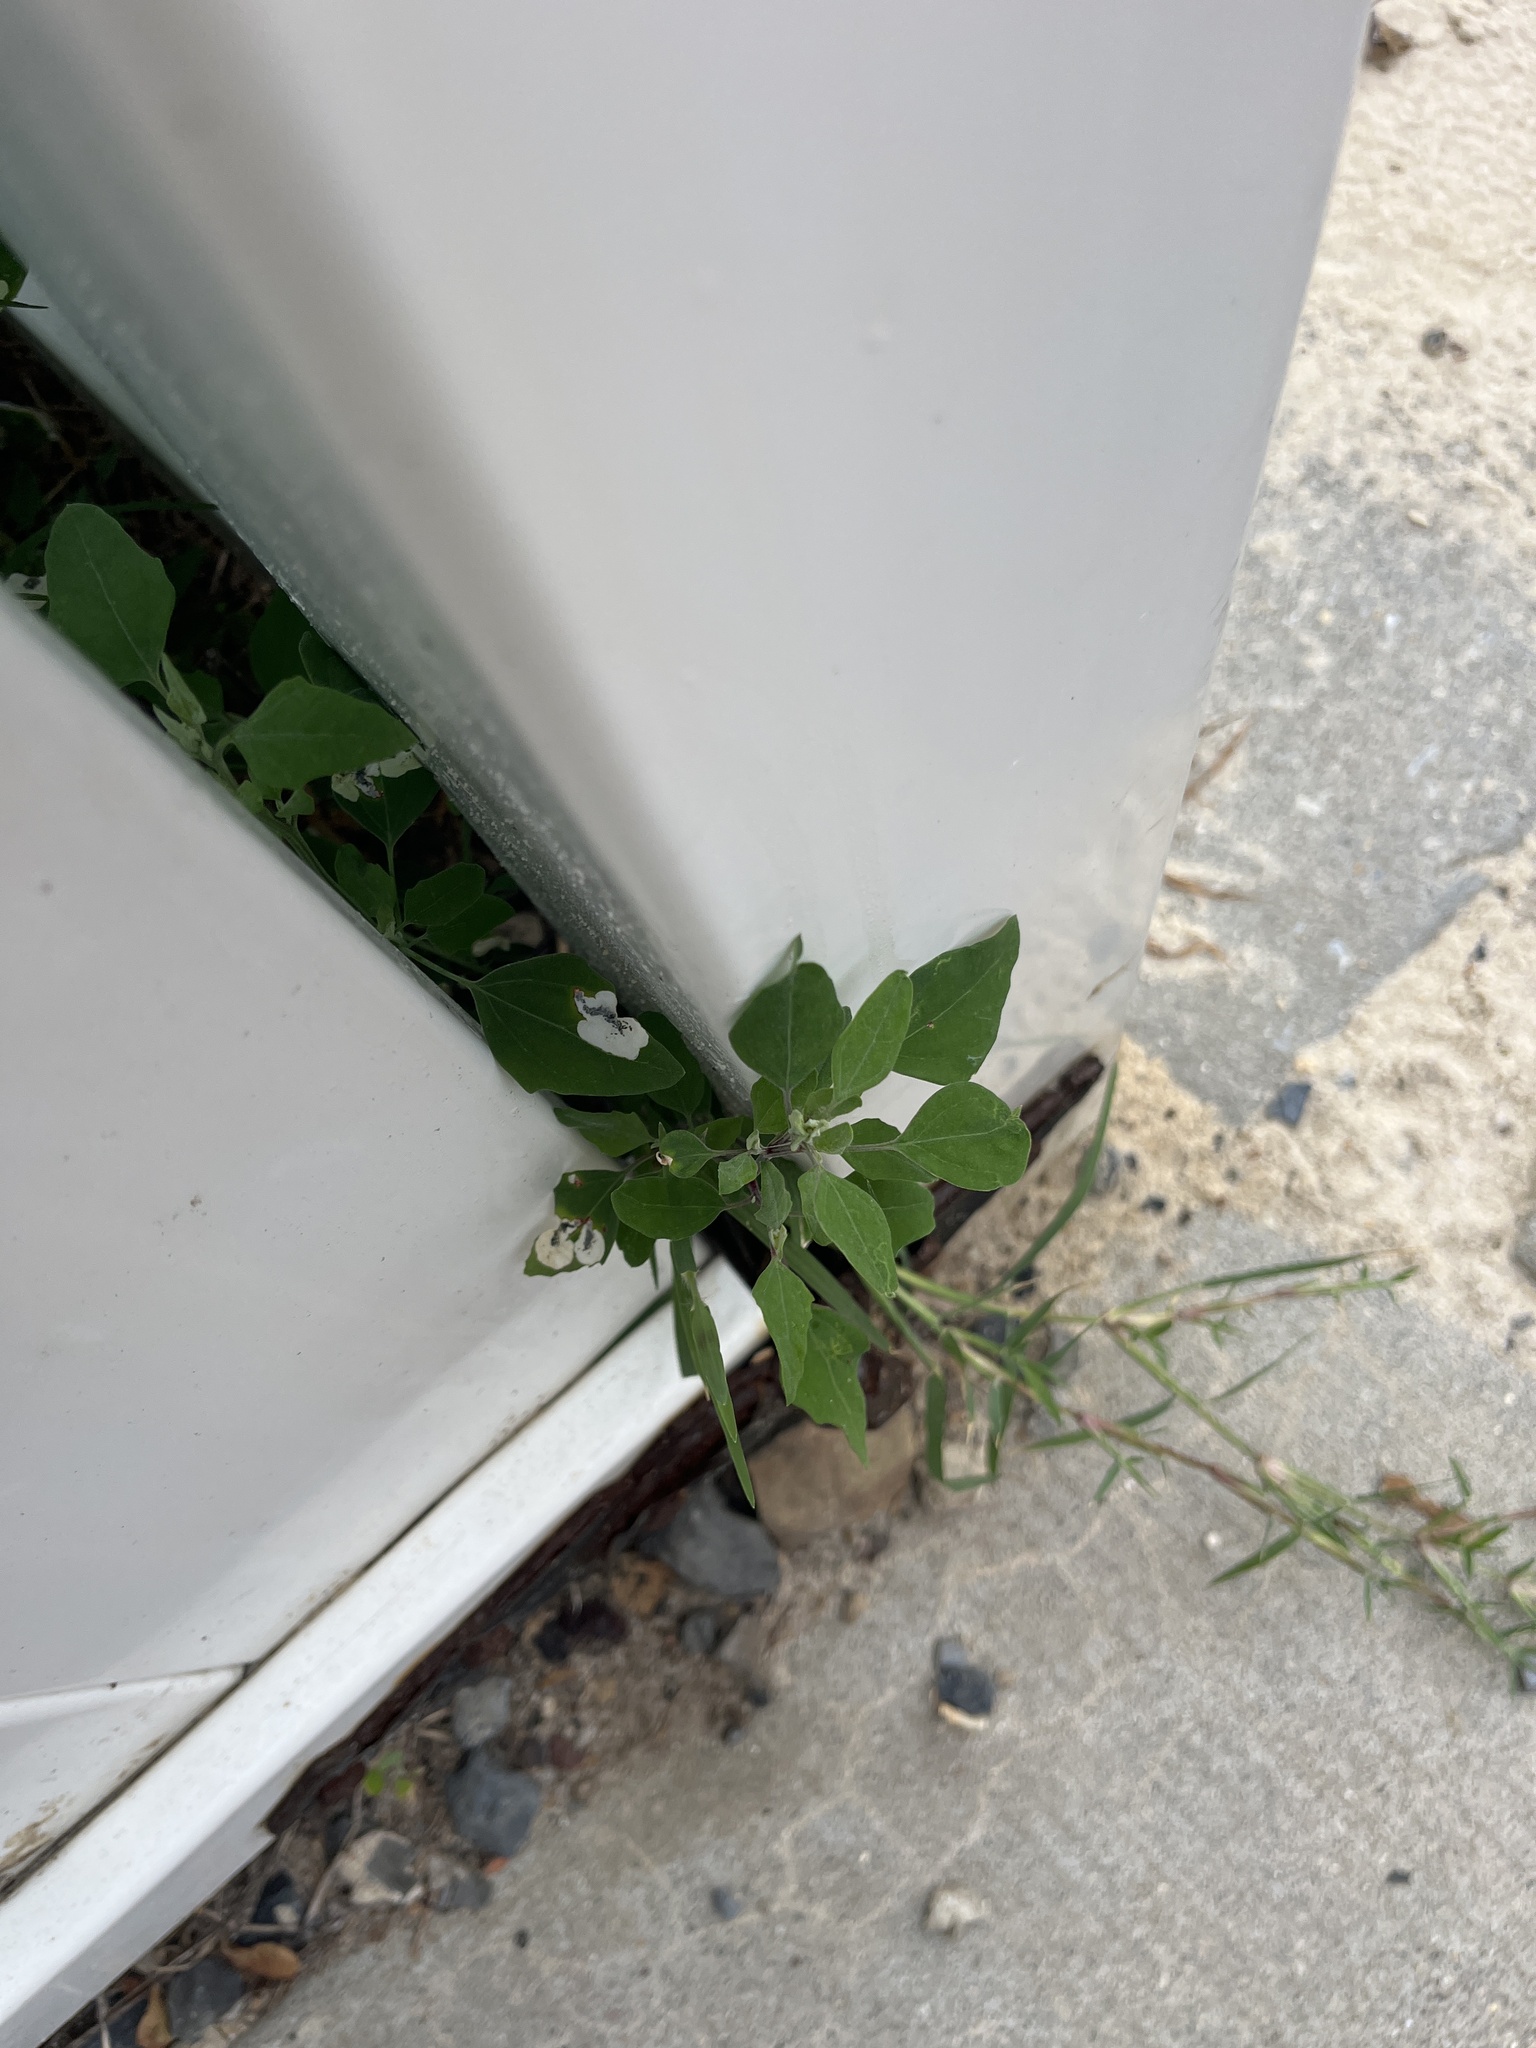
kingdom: Plantae
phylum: Tracheophyta
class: Magnoliopsida
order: Caryophyllales
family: Amaranthaceae
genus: Chenopodium
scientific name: Chenopodium album
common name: Fat-hen
